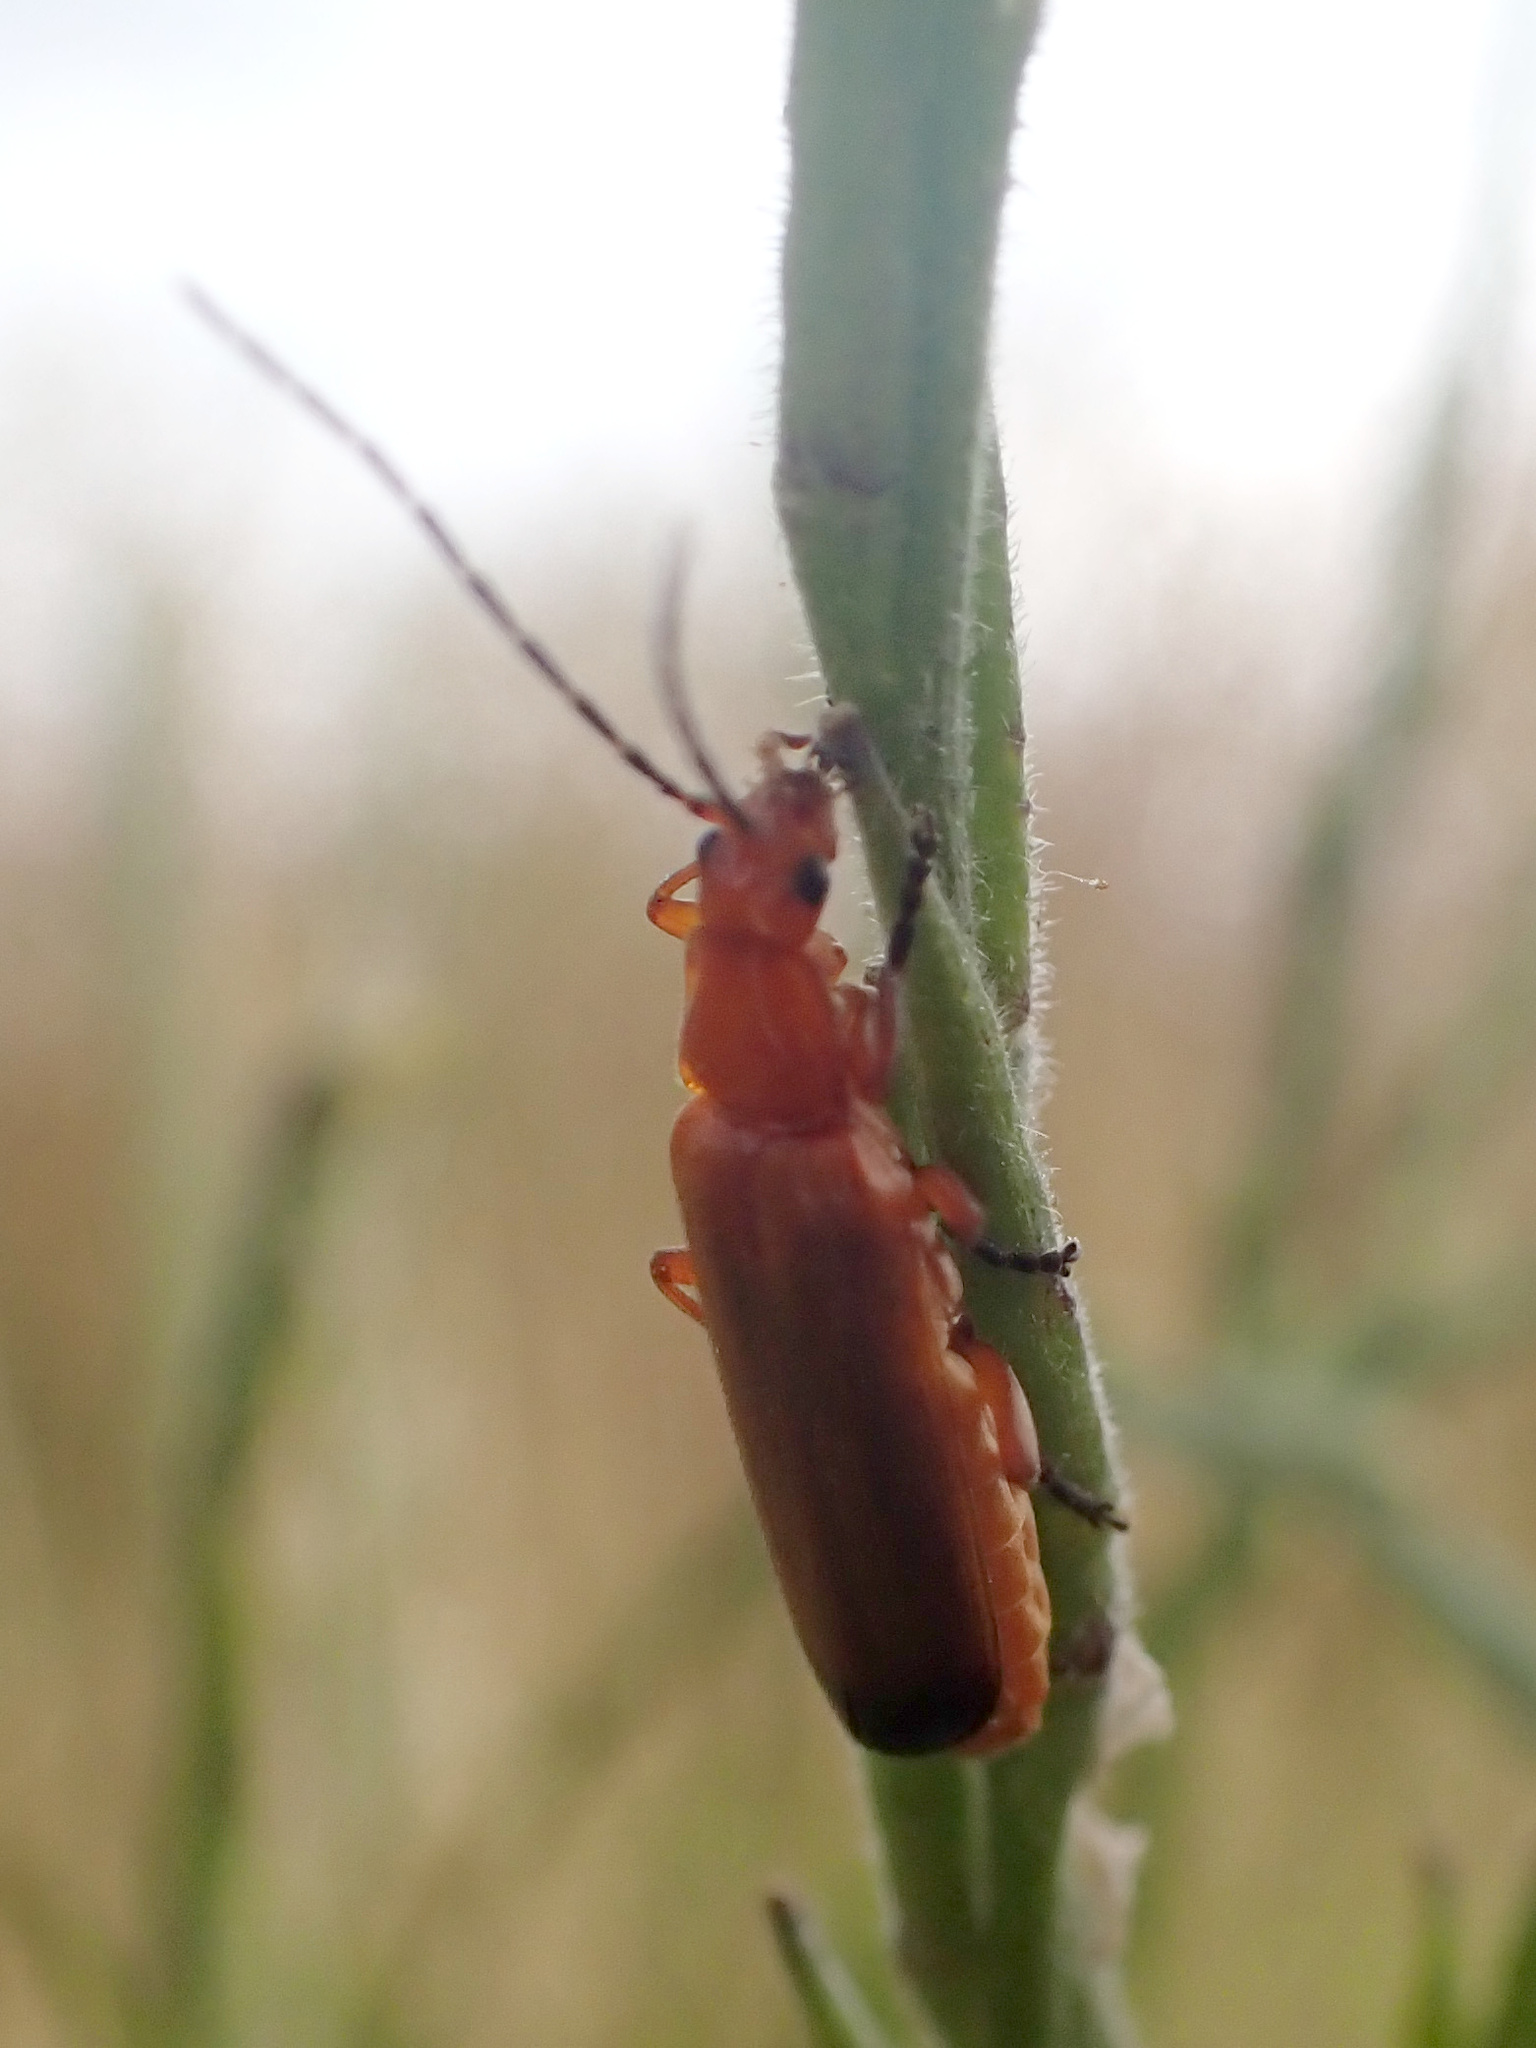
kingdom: Animalia
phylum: Arthropoda
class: Insecta
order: Coleoptera
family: Cantharidae
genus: Rhagonycha
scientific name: Rhagonycha fulva
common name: Common red soldier beetle
